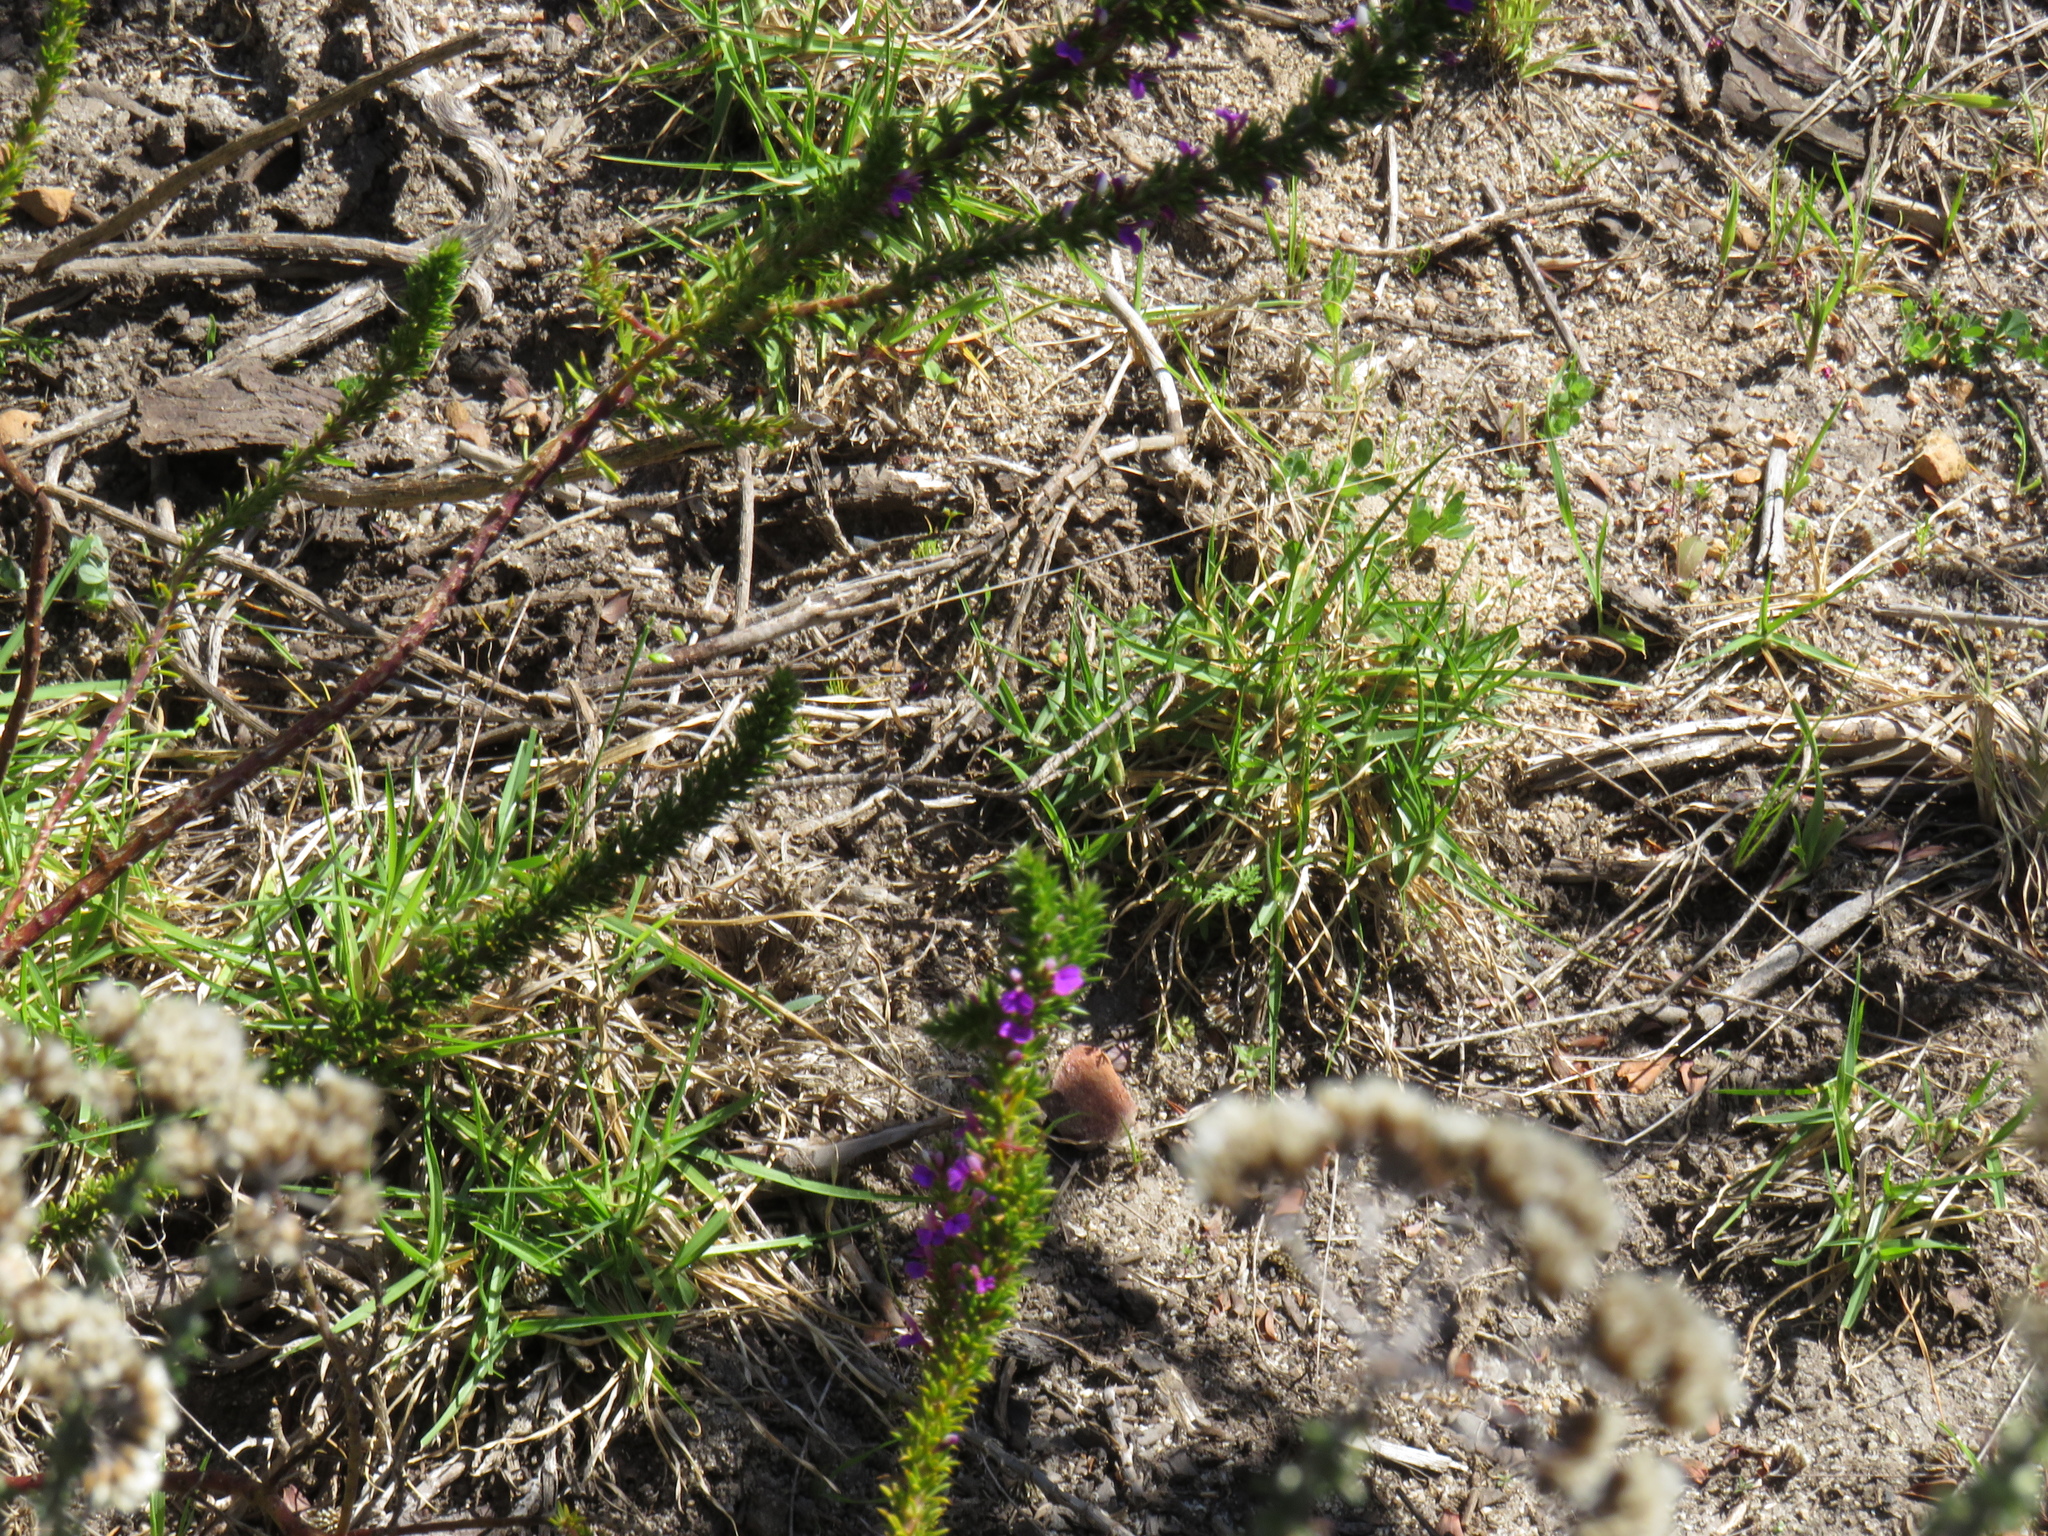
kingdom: Plantae
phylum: Tracheophyta
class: Liliopsida
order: Poales
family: Poaceae
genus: Cenchrus
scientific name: Cenchrus clandestinus
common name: Kikuyugrass
